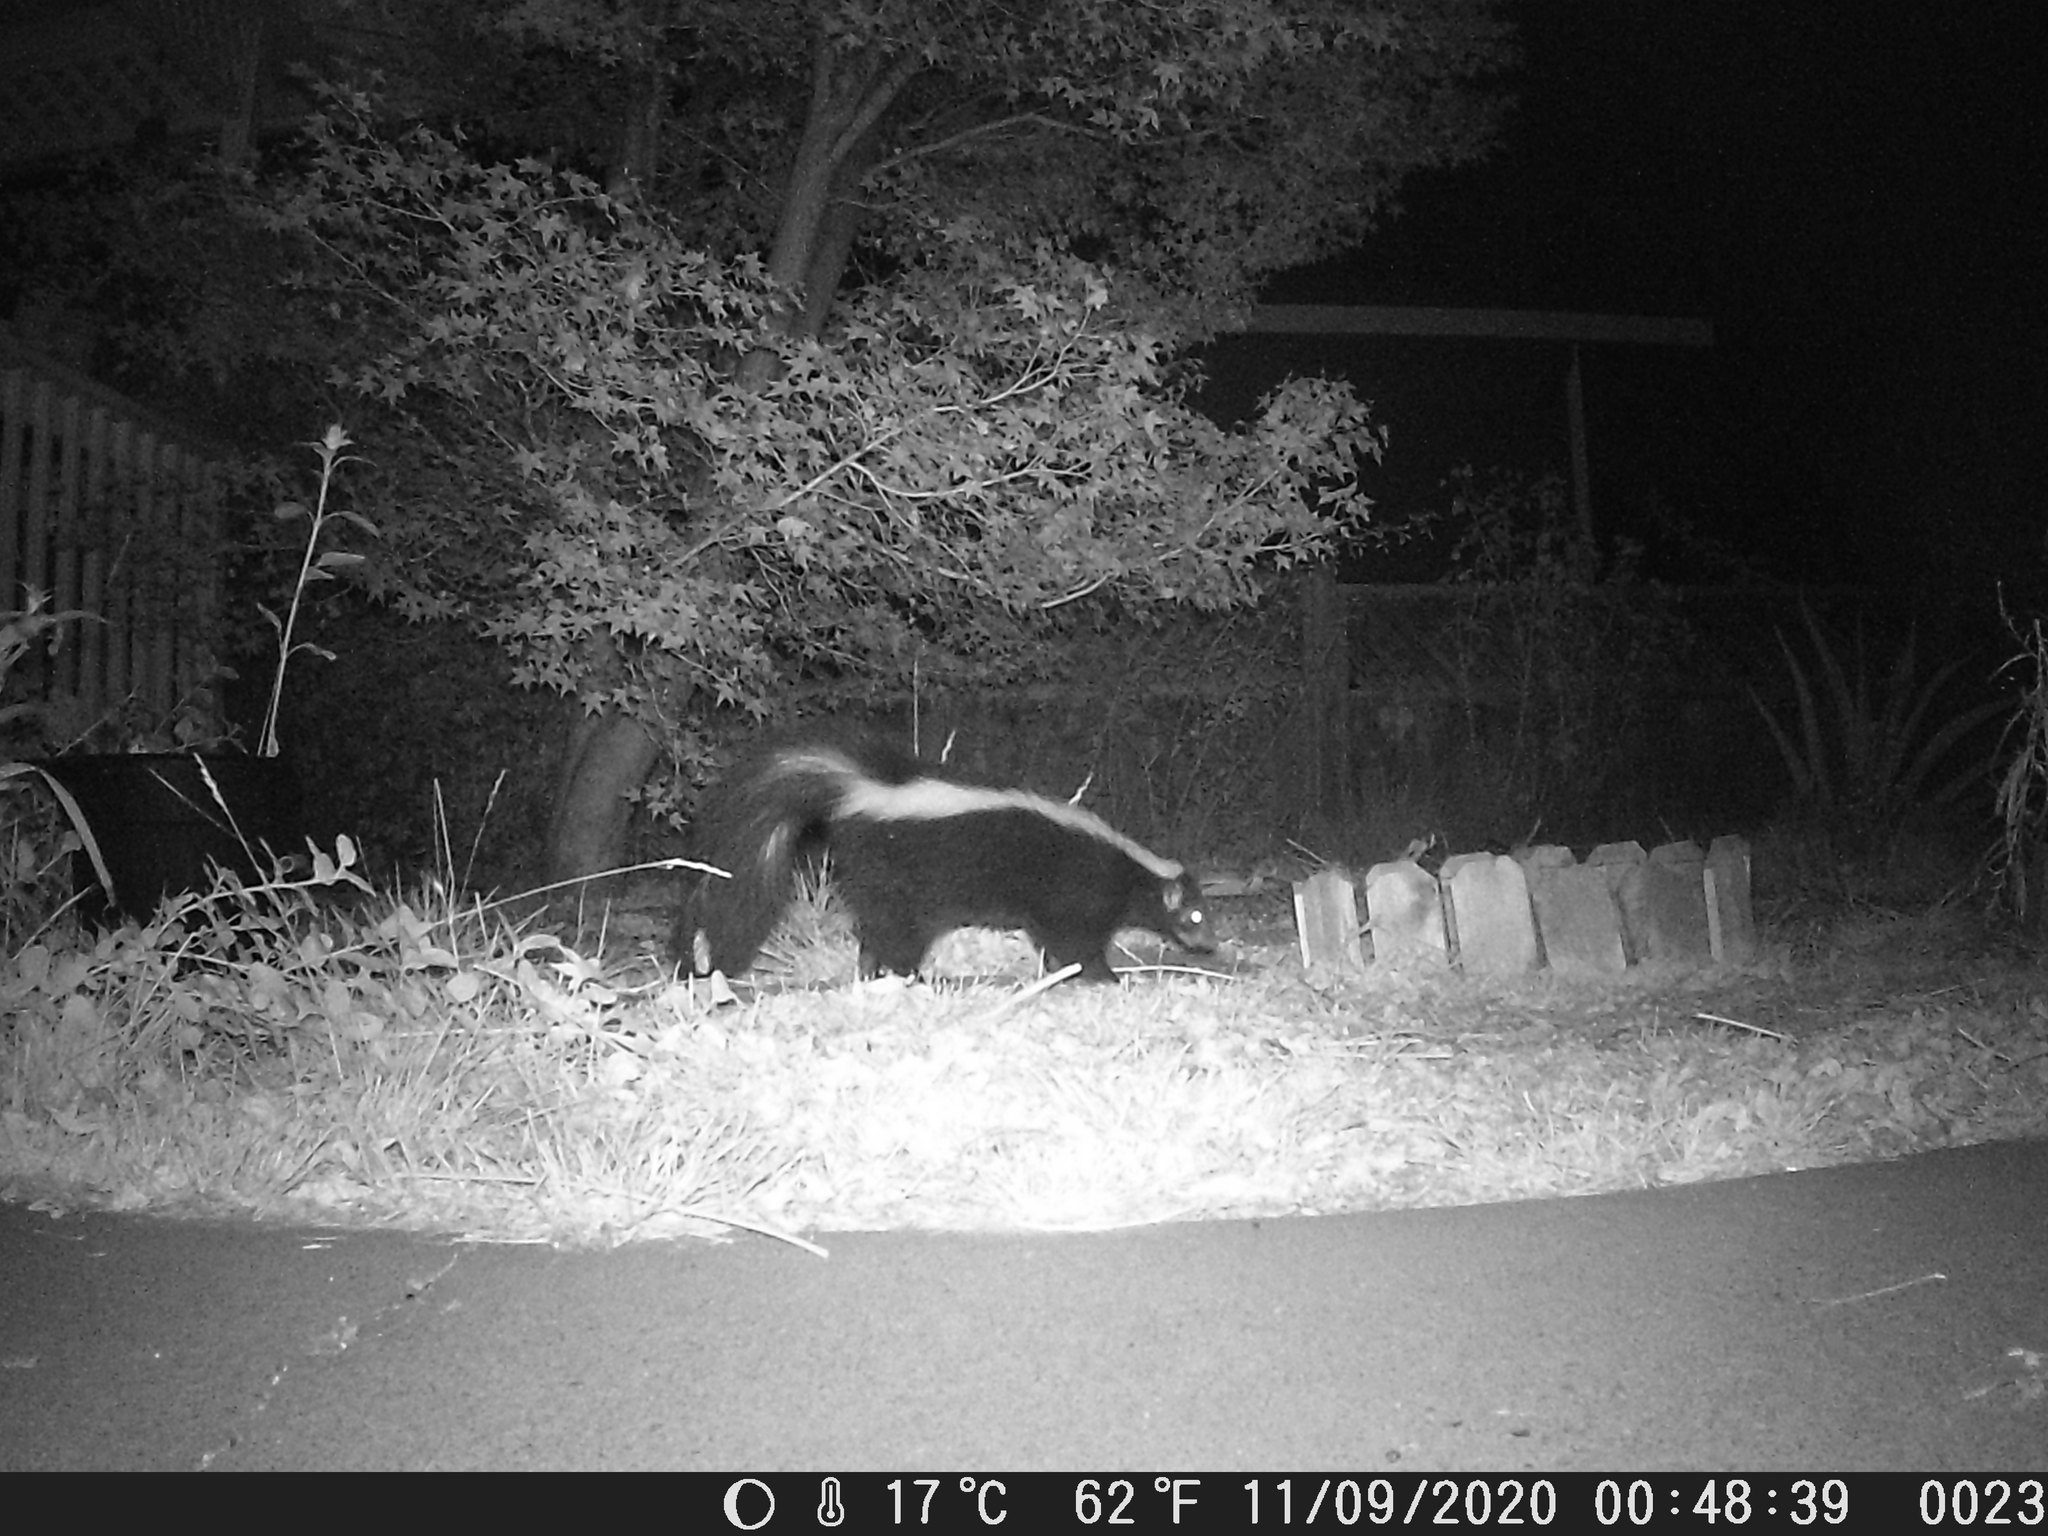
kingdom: Animalia
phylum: Chordata
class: Mammalia
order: Carnivora
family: Mephitidae
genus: Mephitis
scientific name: Mephitis mephitis
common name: Striped skunk
